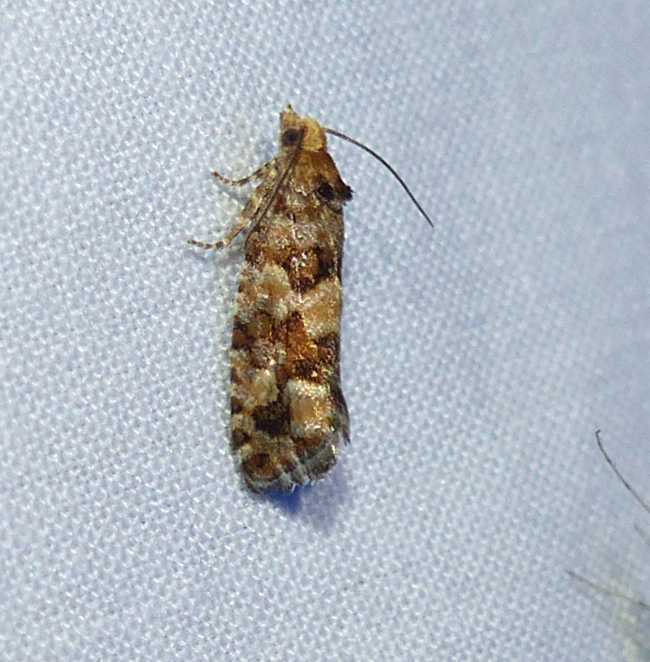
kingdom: Animalia
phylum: Arthropoda
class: Insecta
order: Lepidoptera
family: Tortricidae
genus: Eucopina
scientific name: Eucopina tocullionana
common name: White pinecone borer moth
